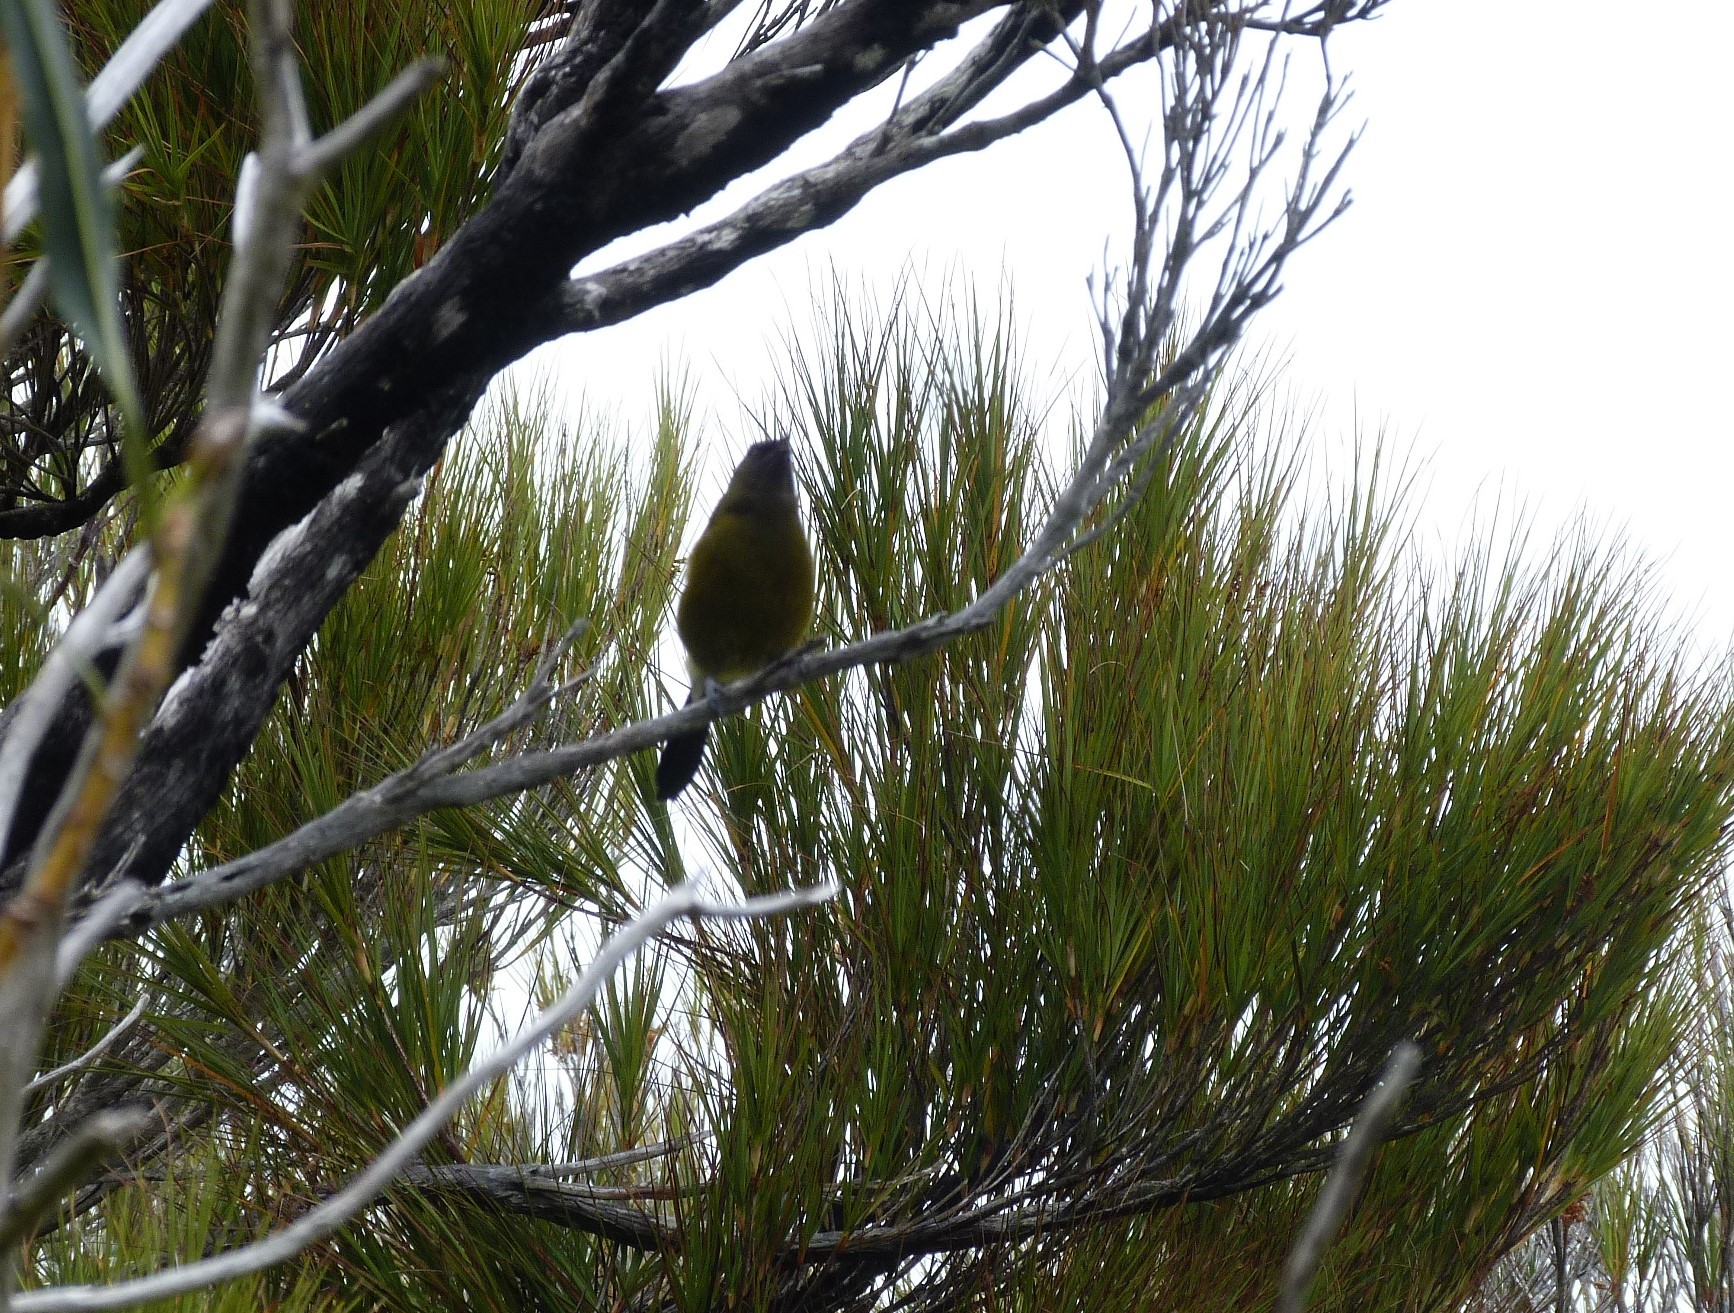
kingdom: Animalia
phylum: Chordata
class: Aves
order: Passeriformes
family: Meliphagidae
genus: Anthornis
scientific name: Anthornis melanura
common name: New zealand bellbird
